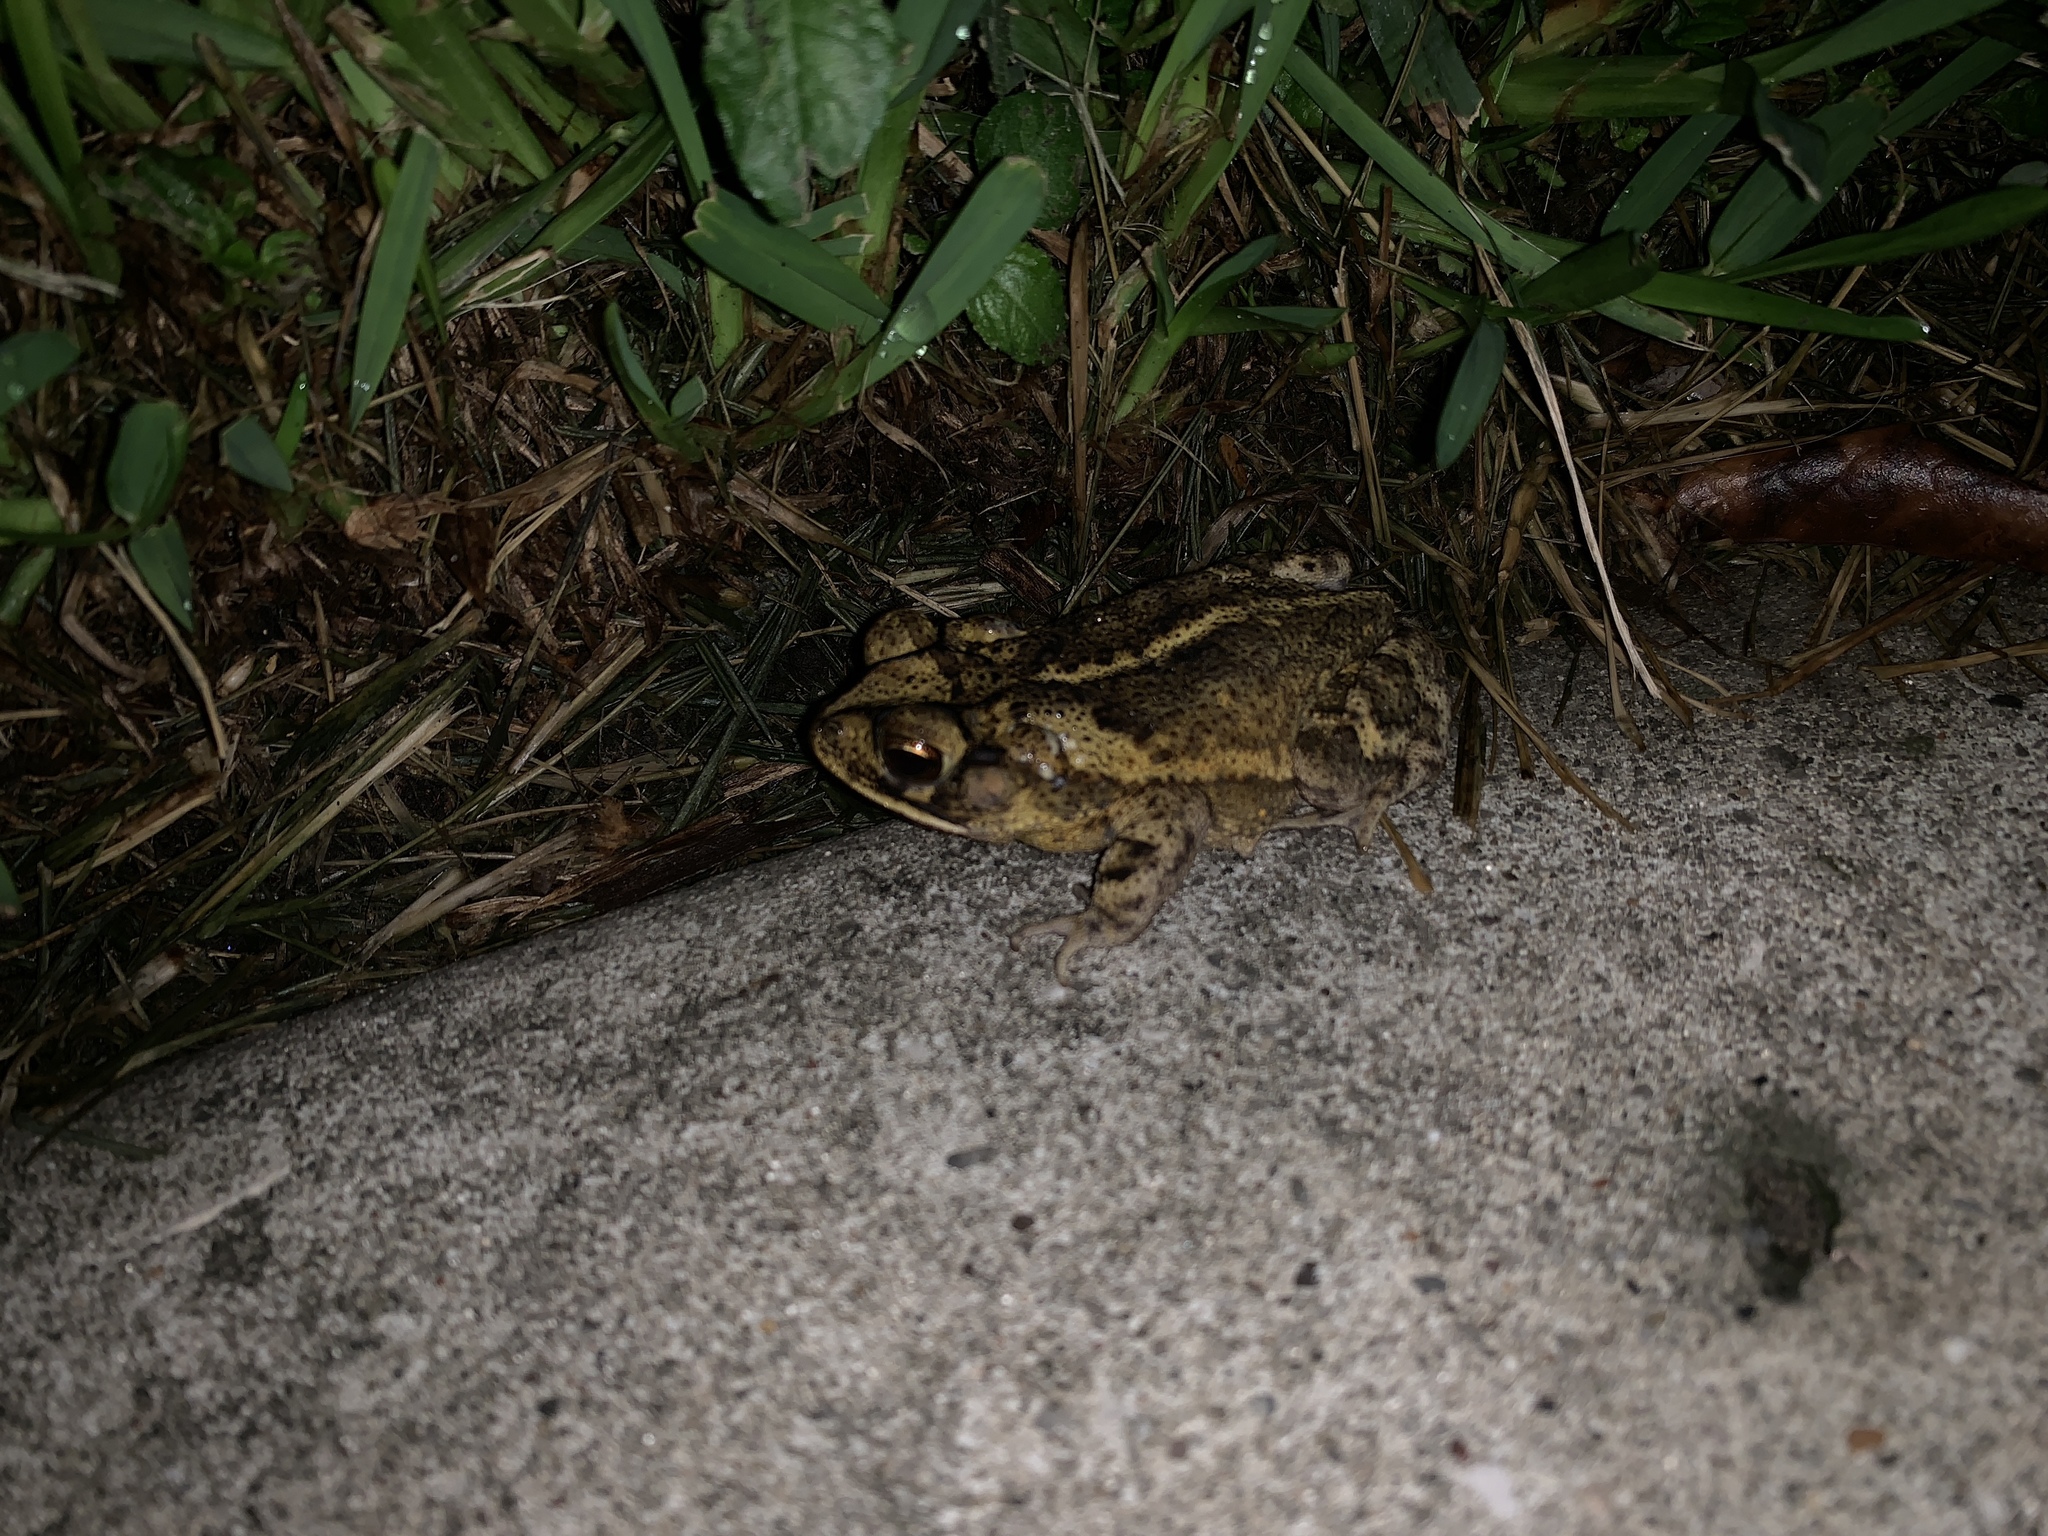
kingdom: Animalia
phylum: Chordata
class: Amphibia
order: Anura
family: Bufonidae
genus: Incilius
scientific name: Incilius nebulifer
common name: Gulf coast toad
